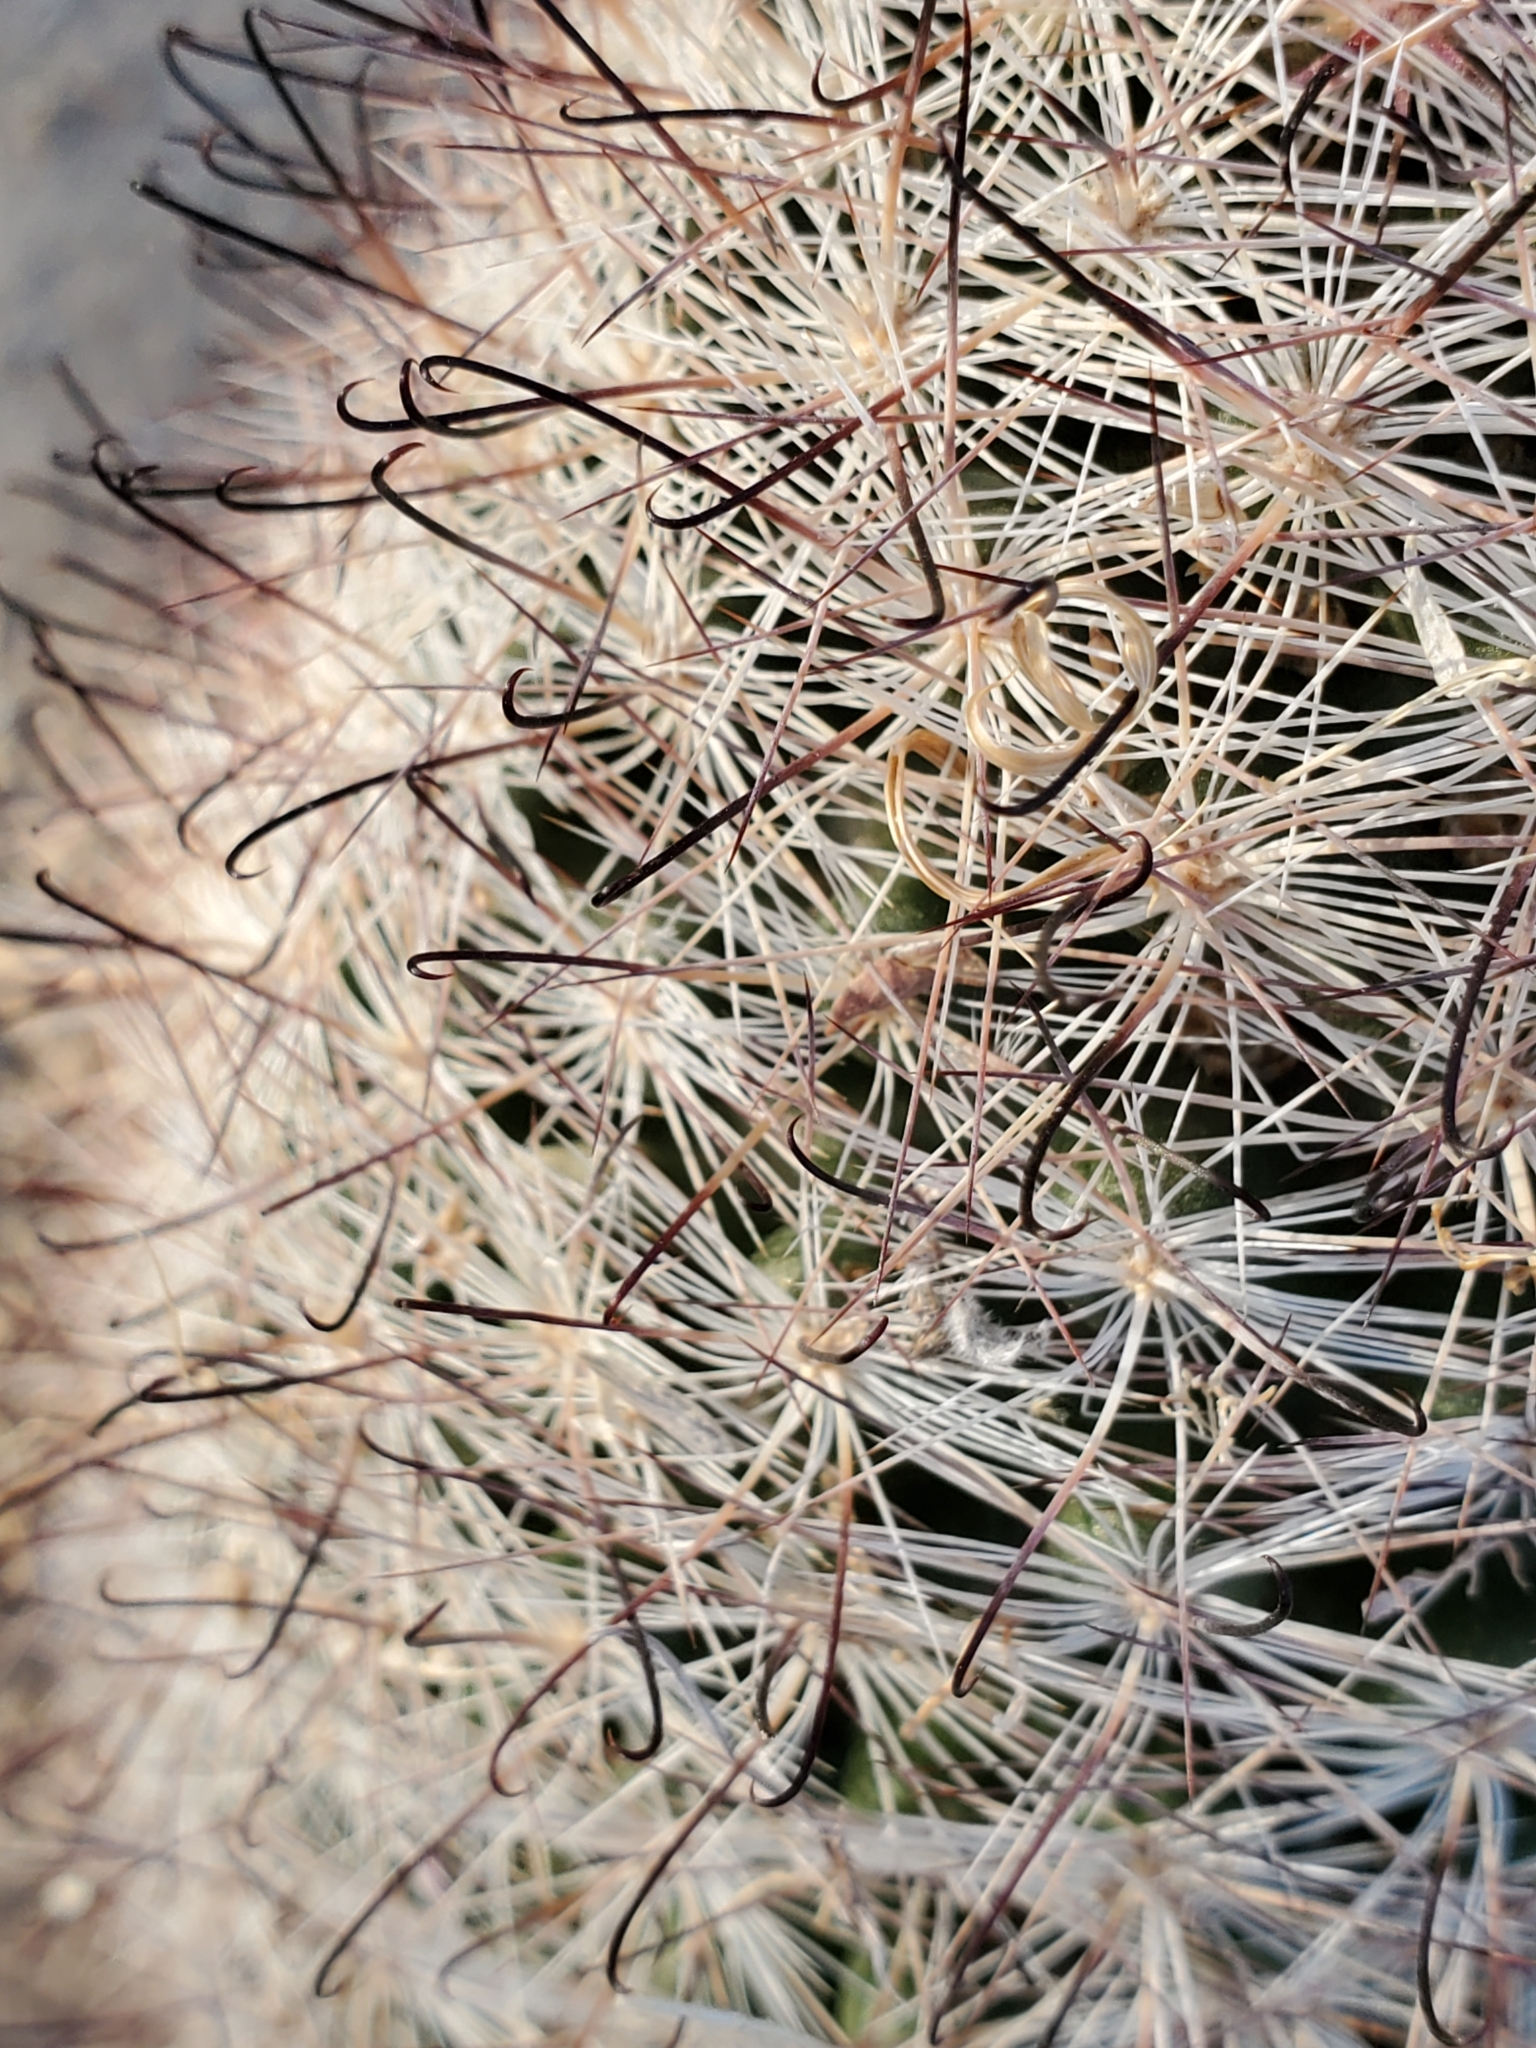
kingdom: Plantae
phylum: Tracheophyta
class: Magnoliopsida
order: Caryophyllales
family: Cactaceae
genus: Cochemiea
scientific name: Cochemiea tetrancistra
